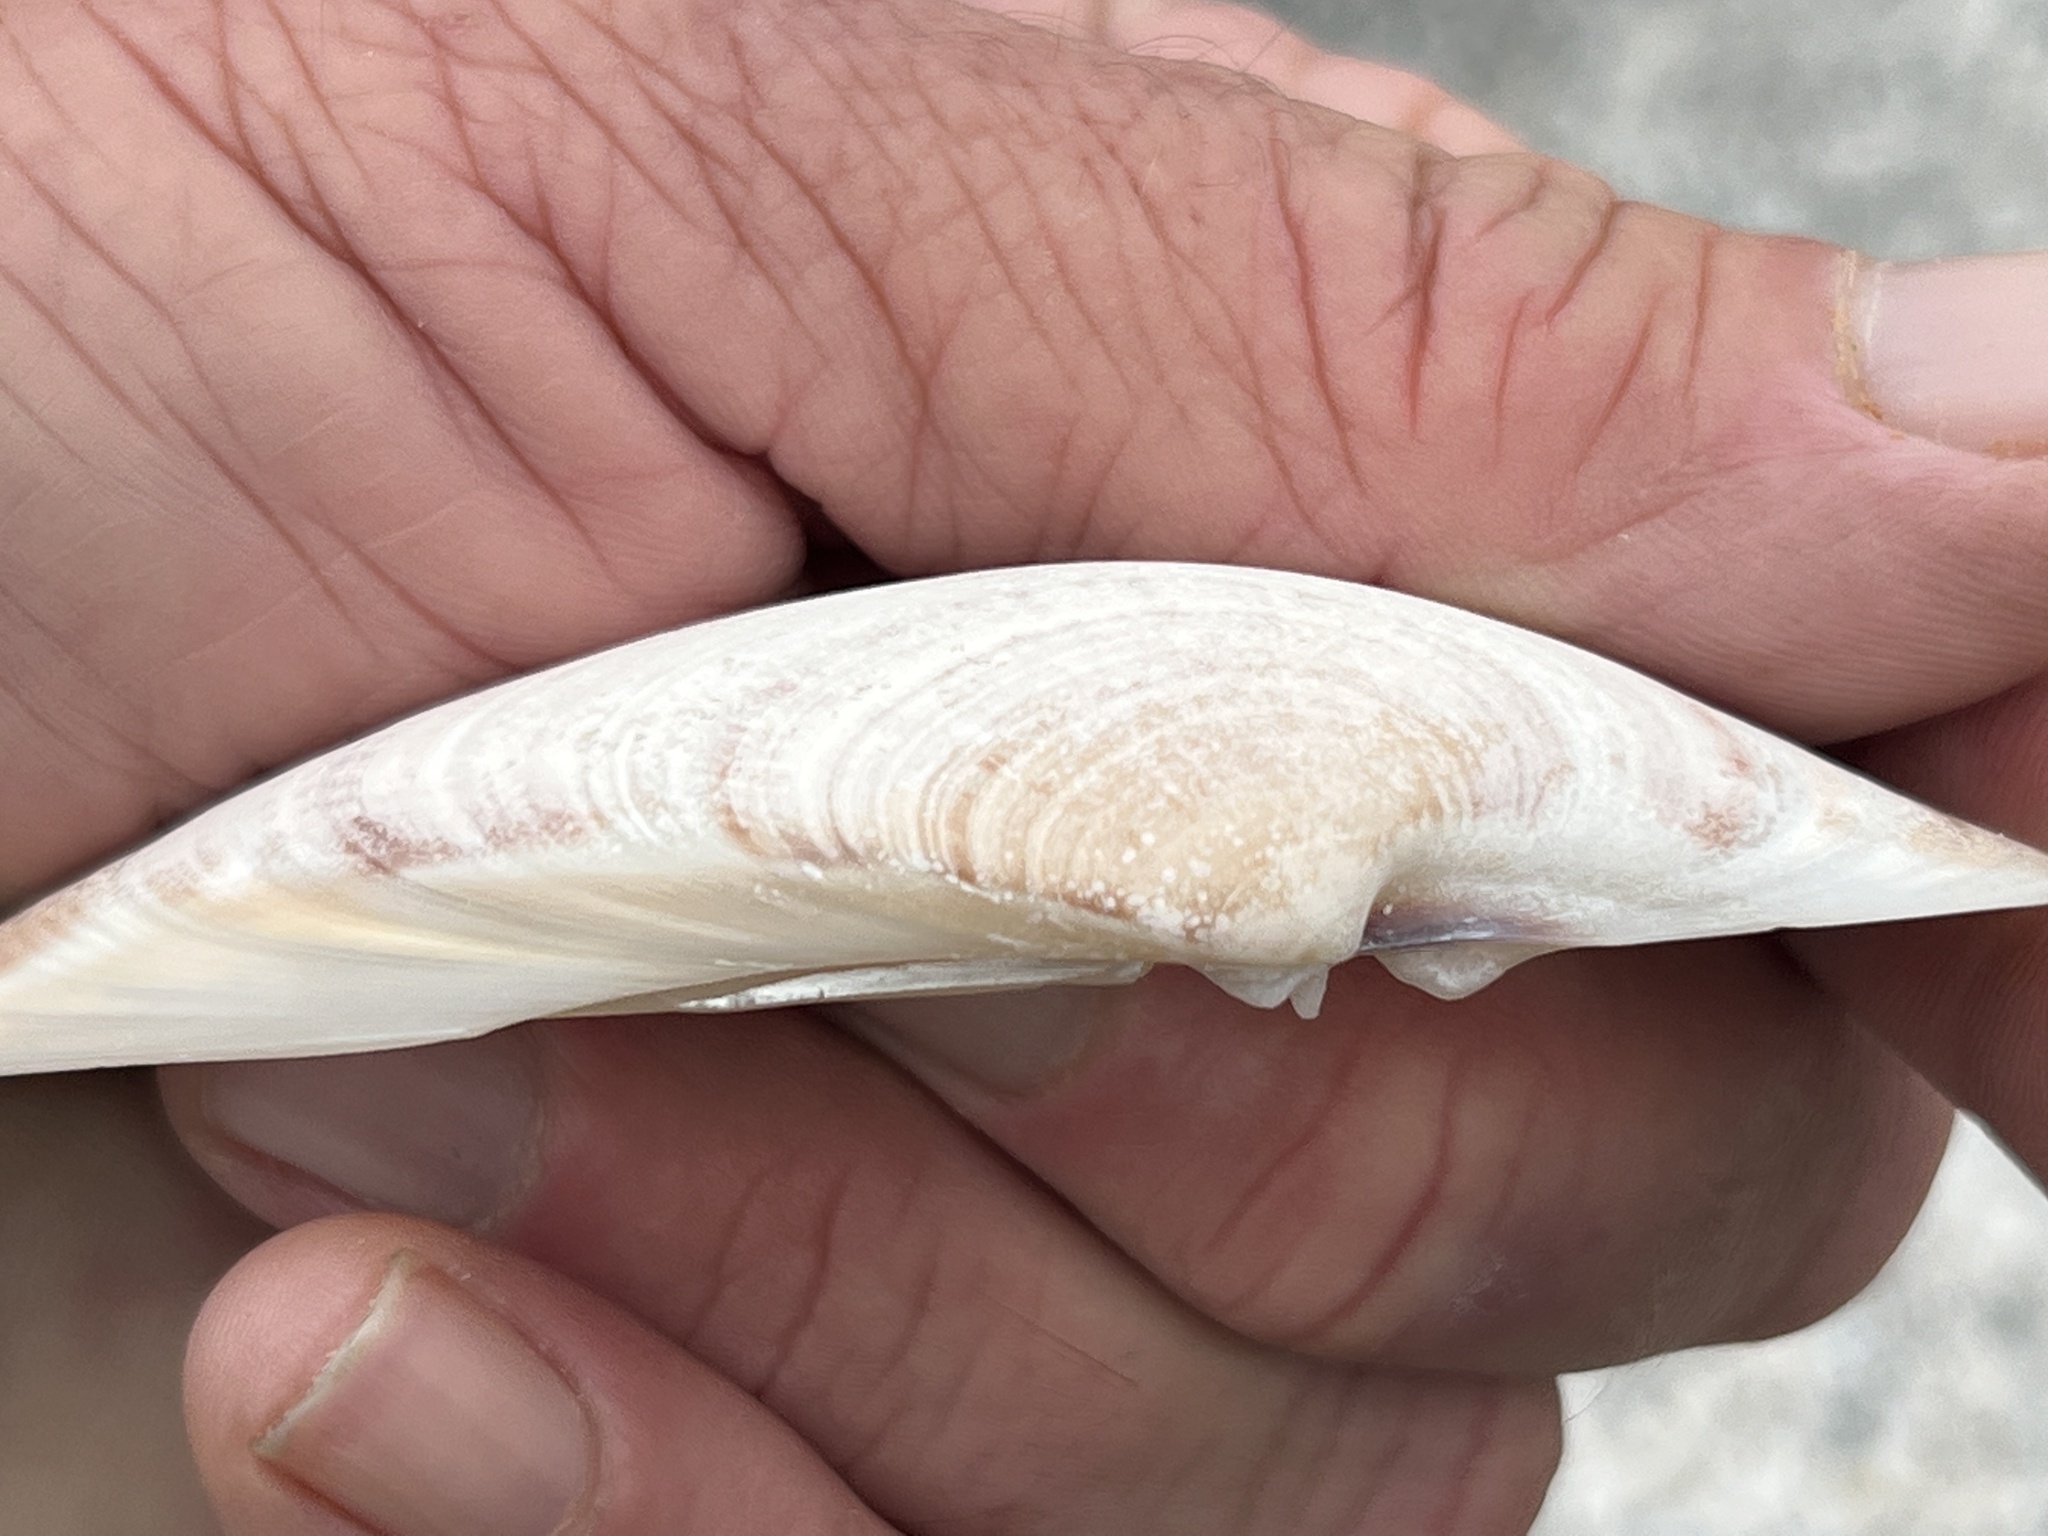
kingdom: Animalia
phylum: Mollusca
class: Bivalvia
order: Venerida
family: Veneridae
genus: Macrocallista
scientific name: Macrocallista nimbosa
